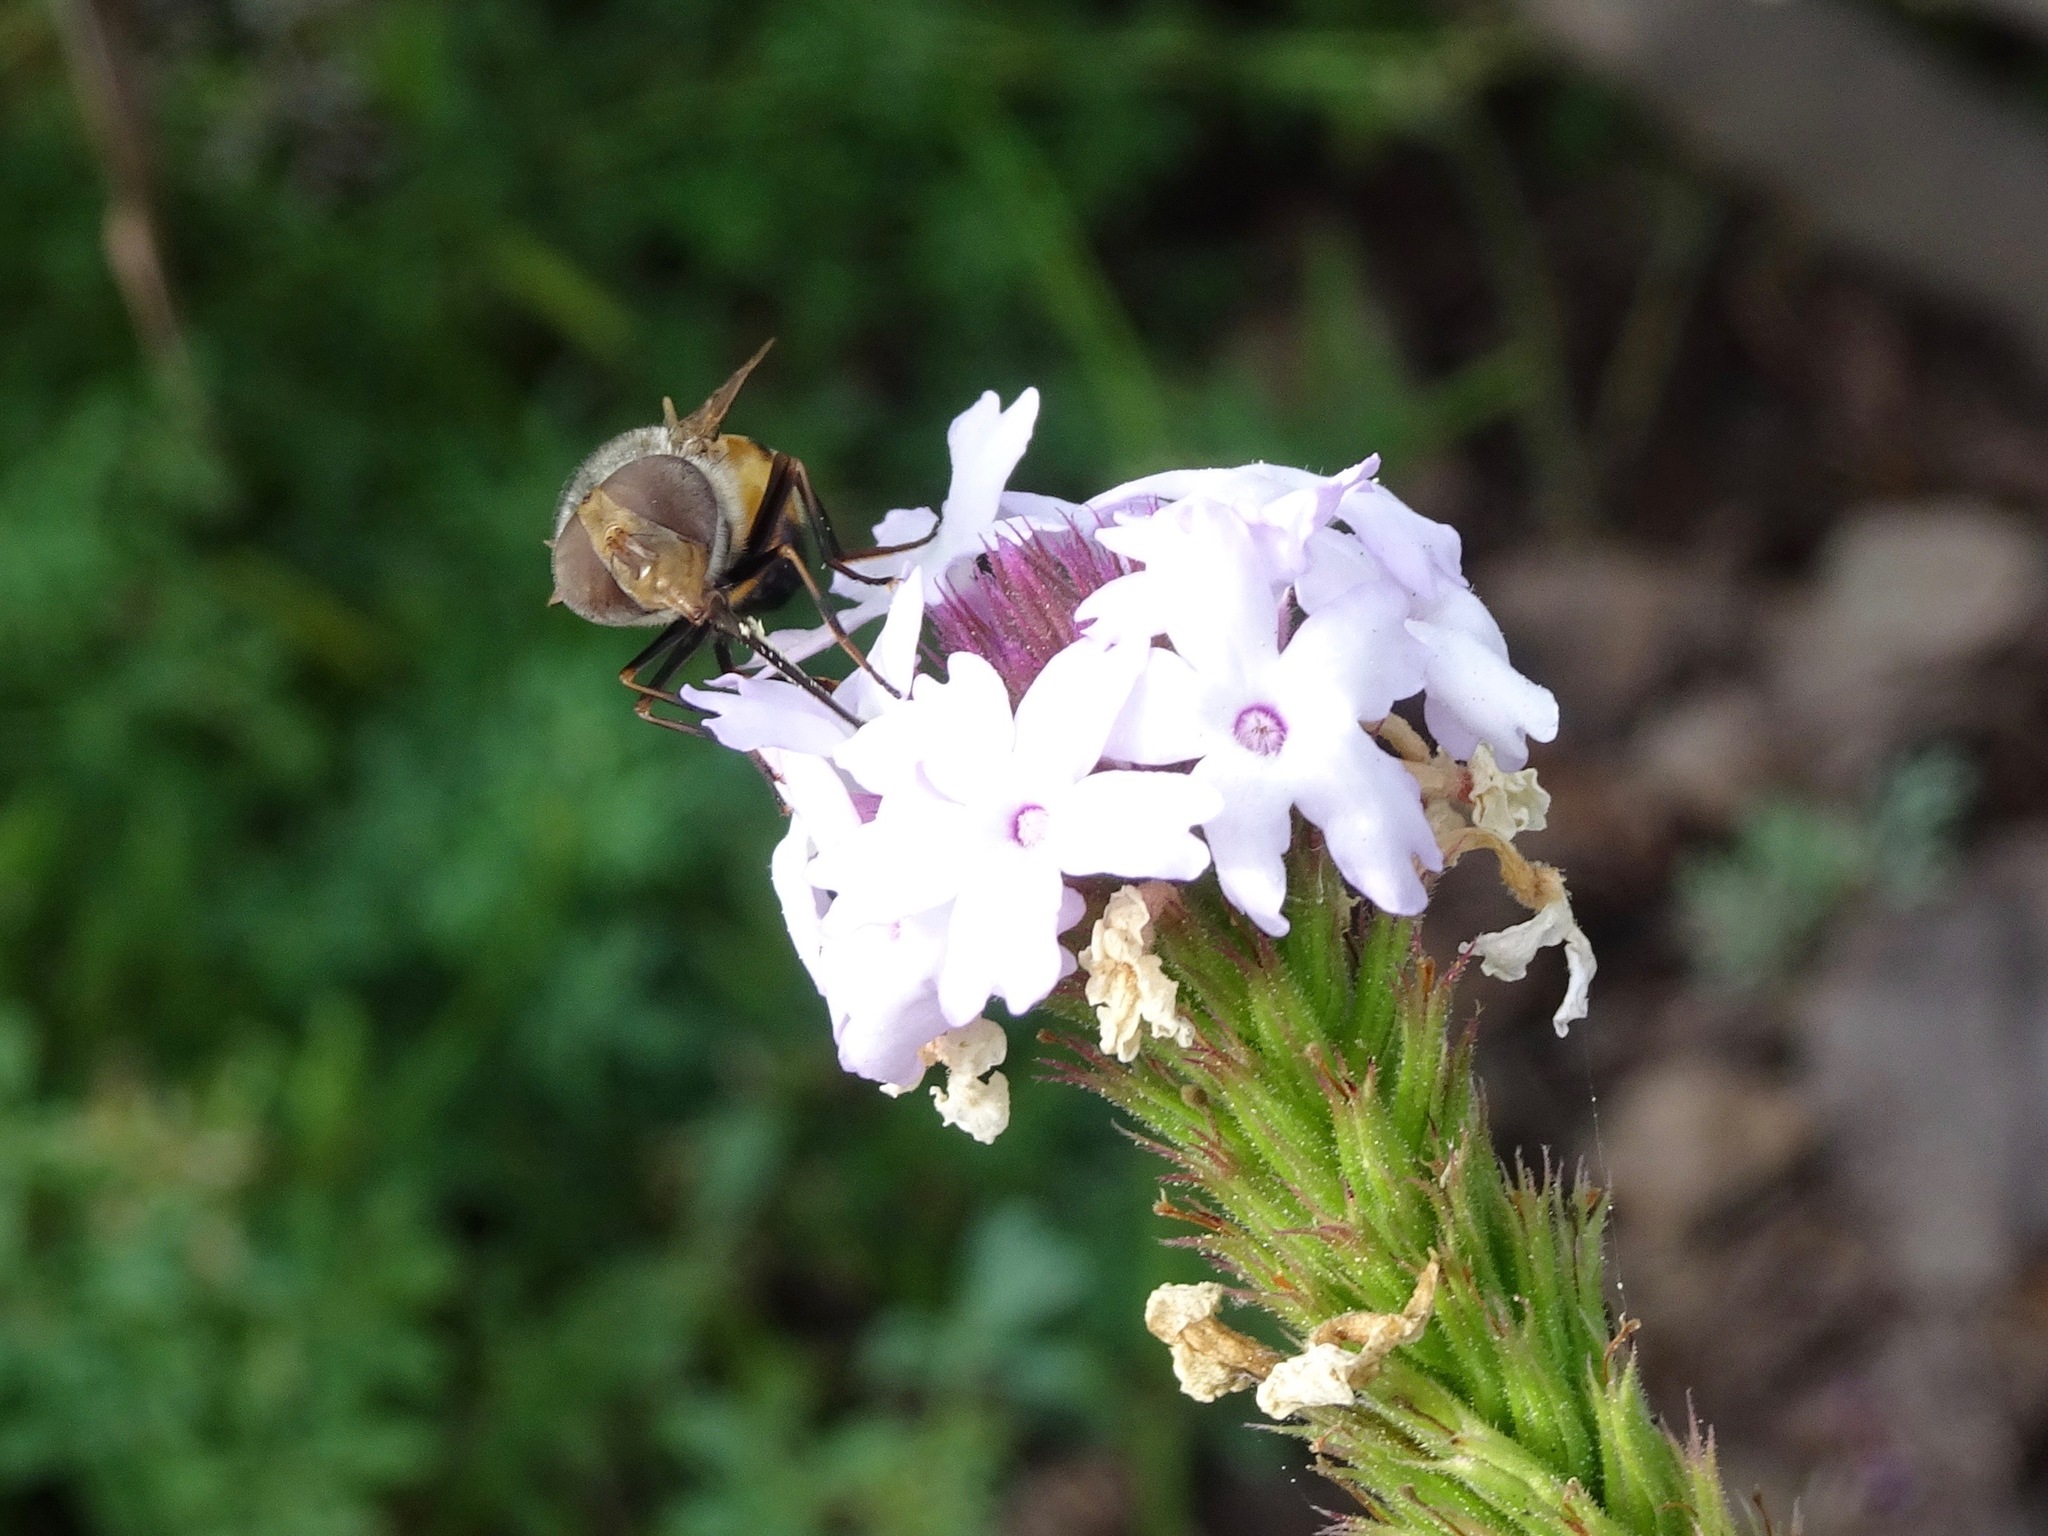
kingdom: Animalia
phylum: Arthropoda
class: Insecta
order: Diptera
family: Syrphidae
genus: Copestylum
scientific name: Copestylum haagii
